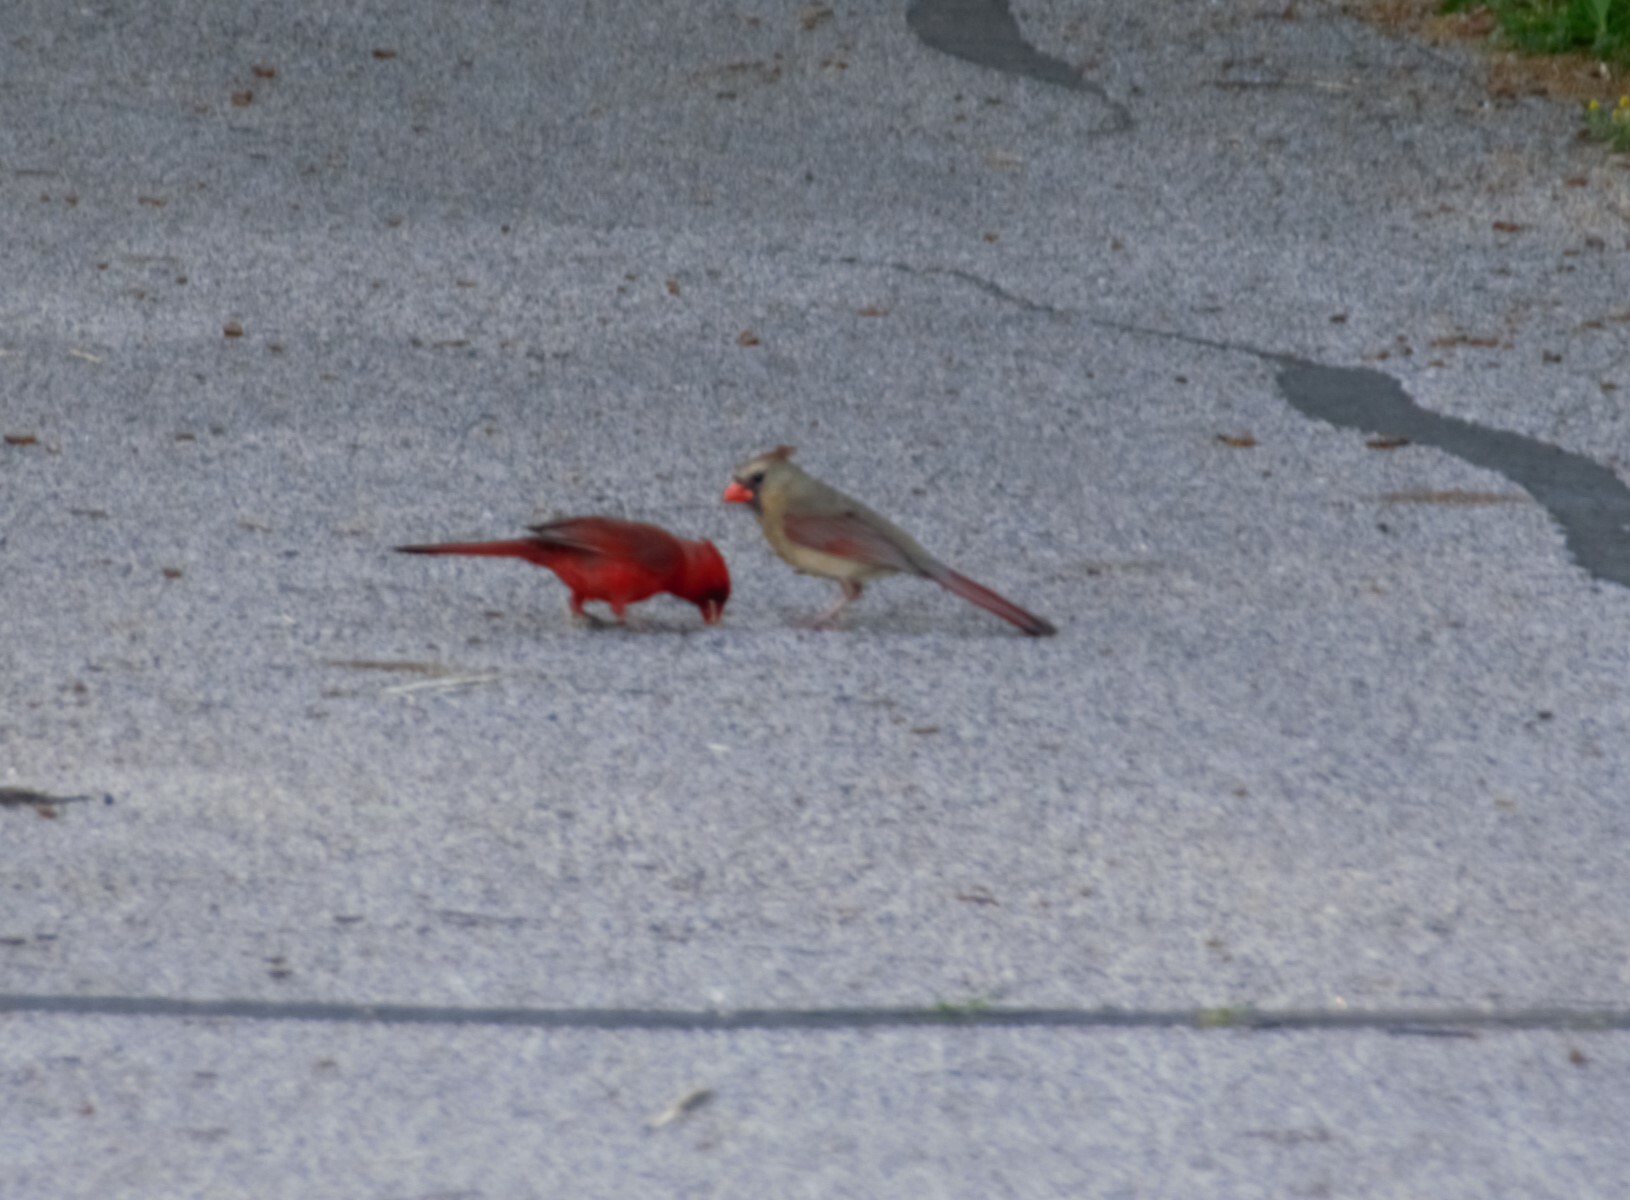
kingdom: Animalia
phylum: Chordata
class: Aves
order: Passeriformes
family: Cardinalidae
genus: Cardinalis
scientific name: Cardinalis cardinalis
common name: Northern cardinal
